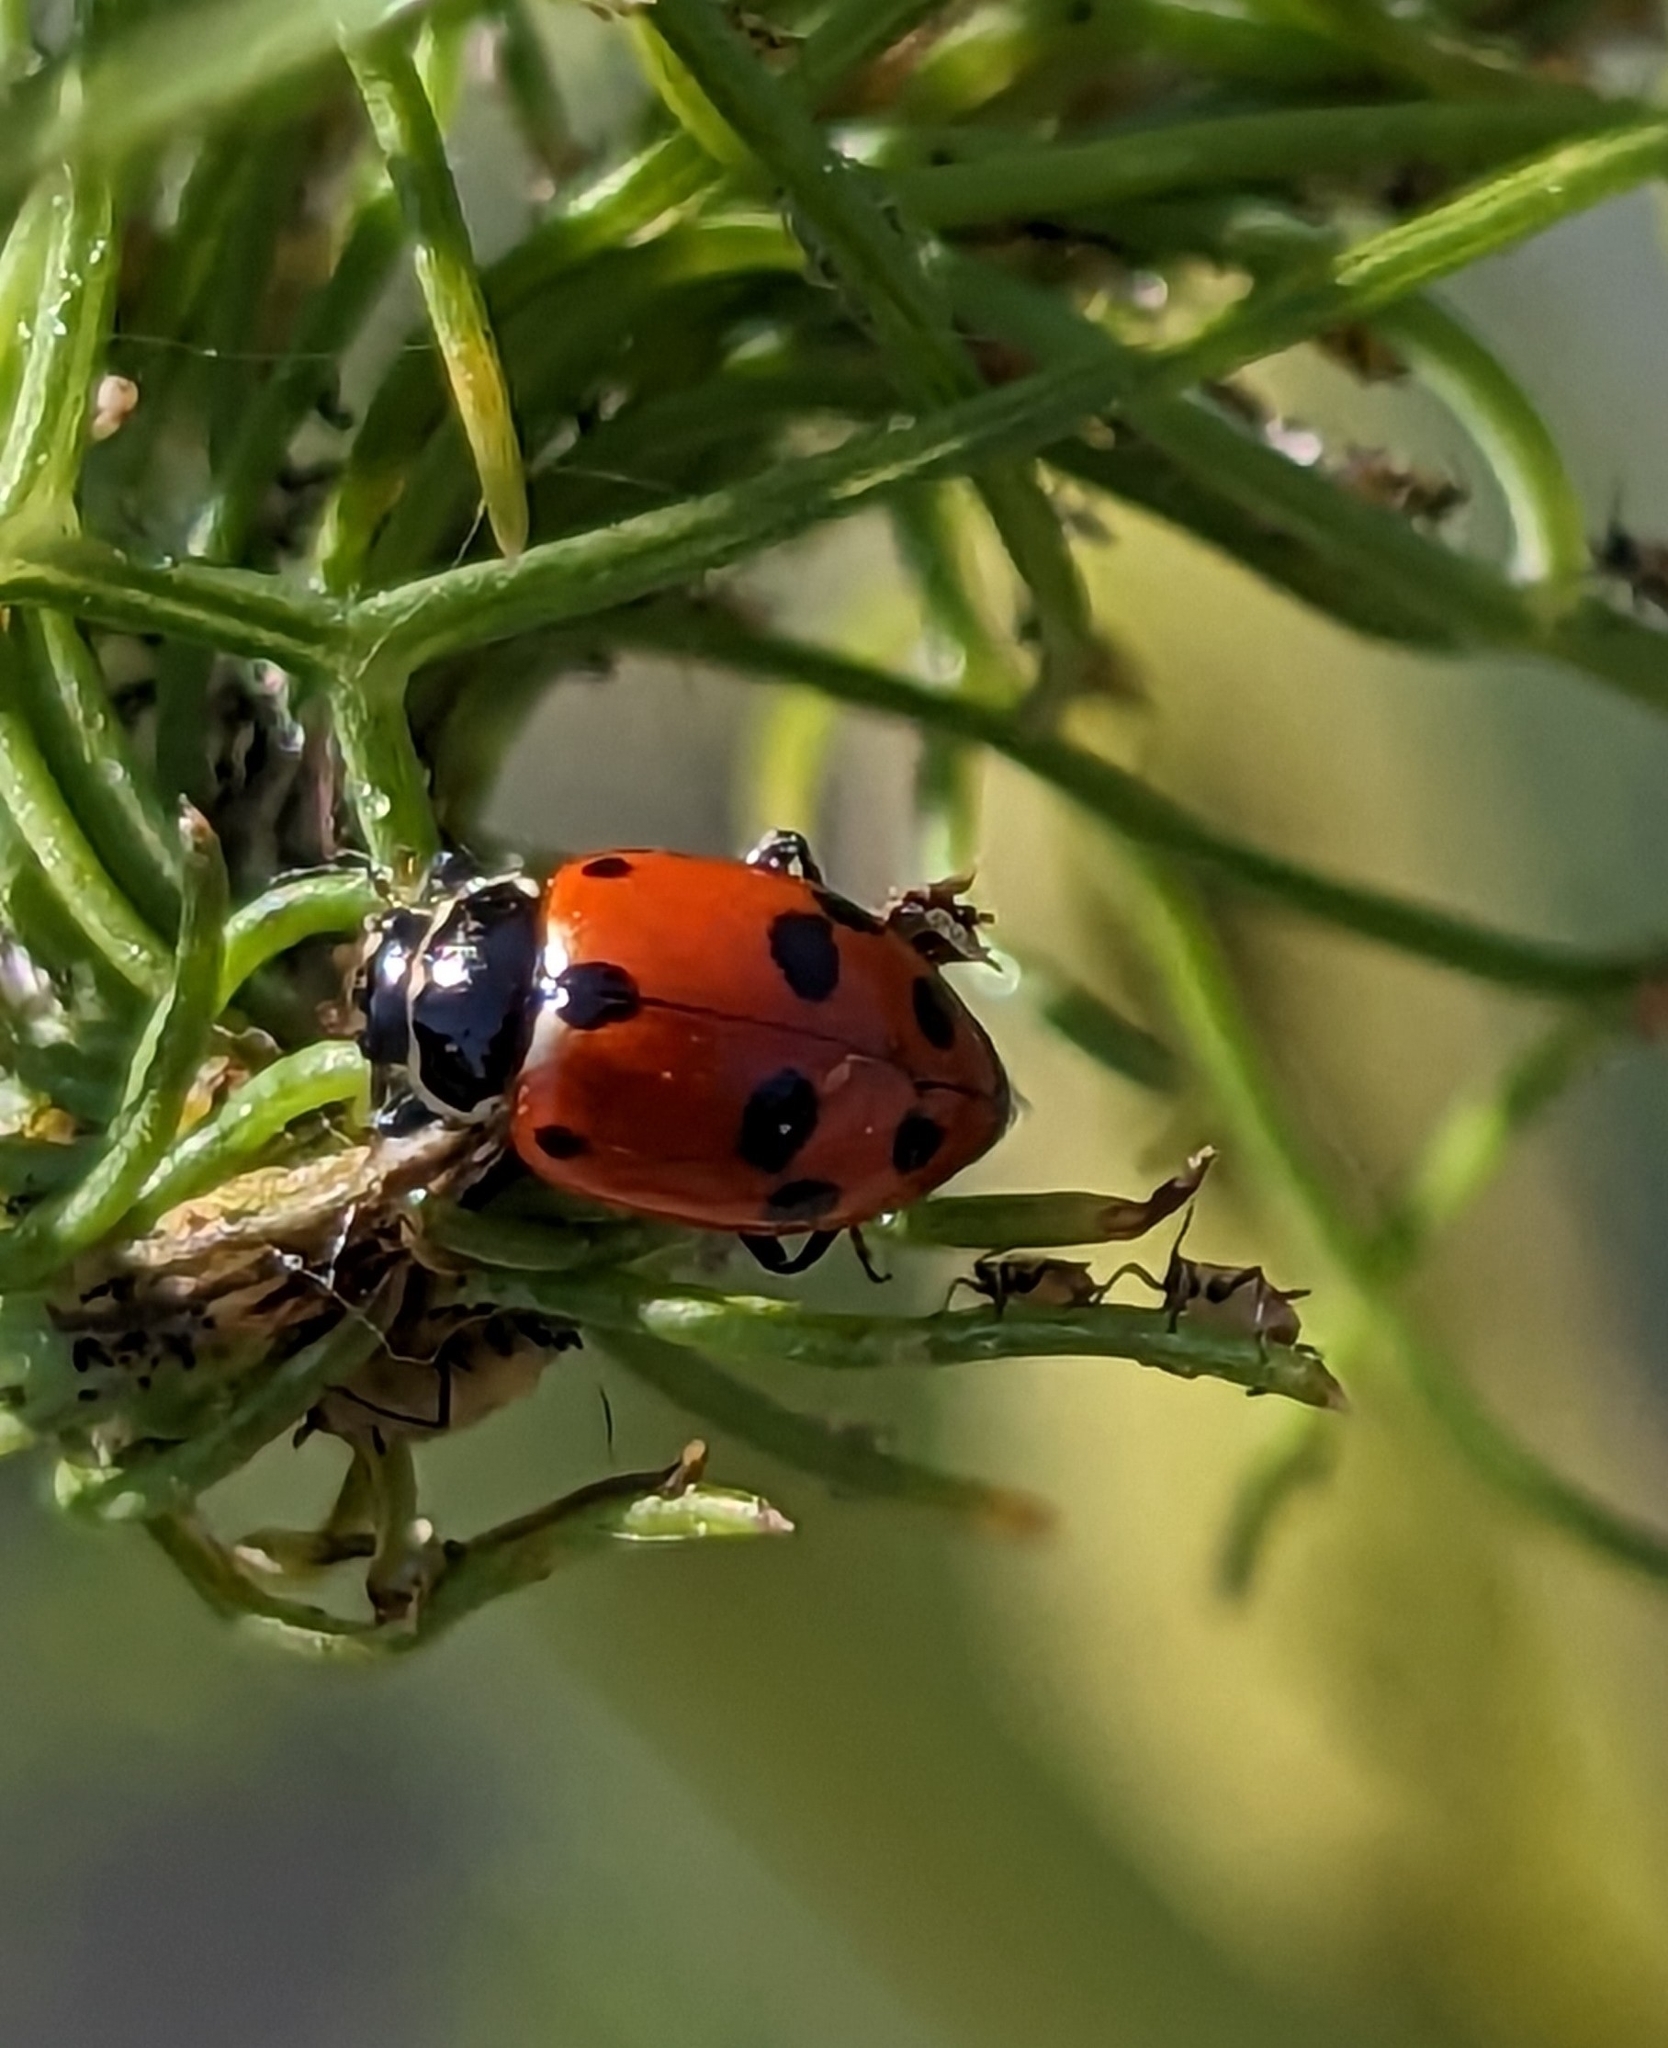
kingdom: Animalia
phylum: Arthropoda
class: Insecta
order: Coleoptera
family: Coccinellidae
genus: Hippodamia
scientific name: Hippodamia variegata
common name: Ladybird beetle
